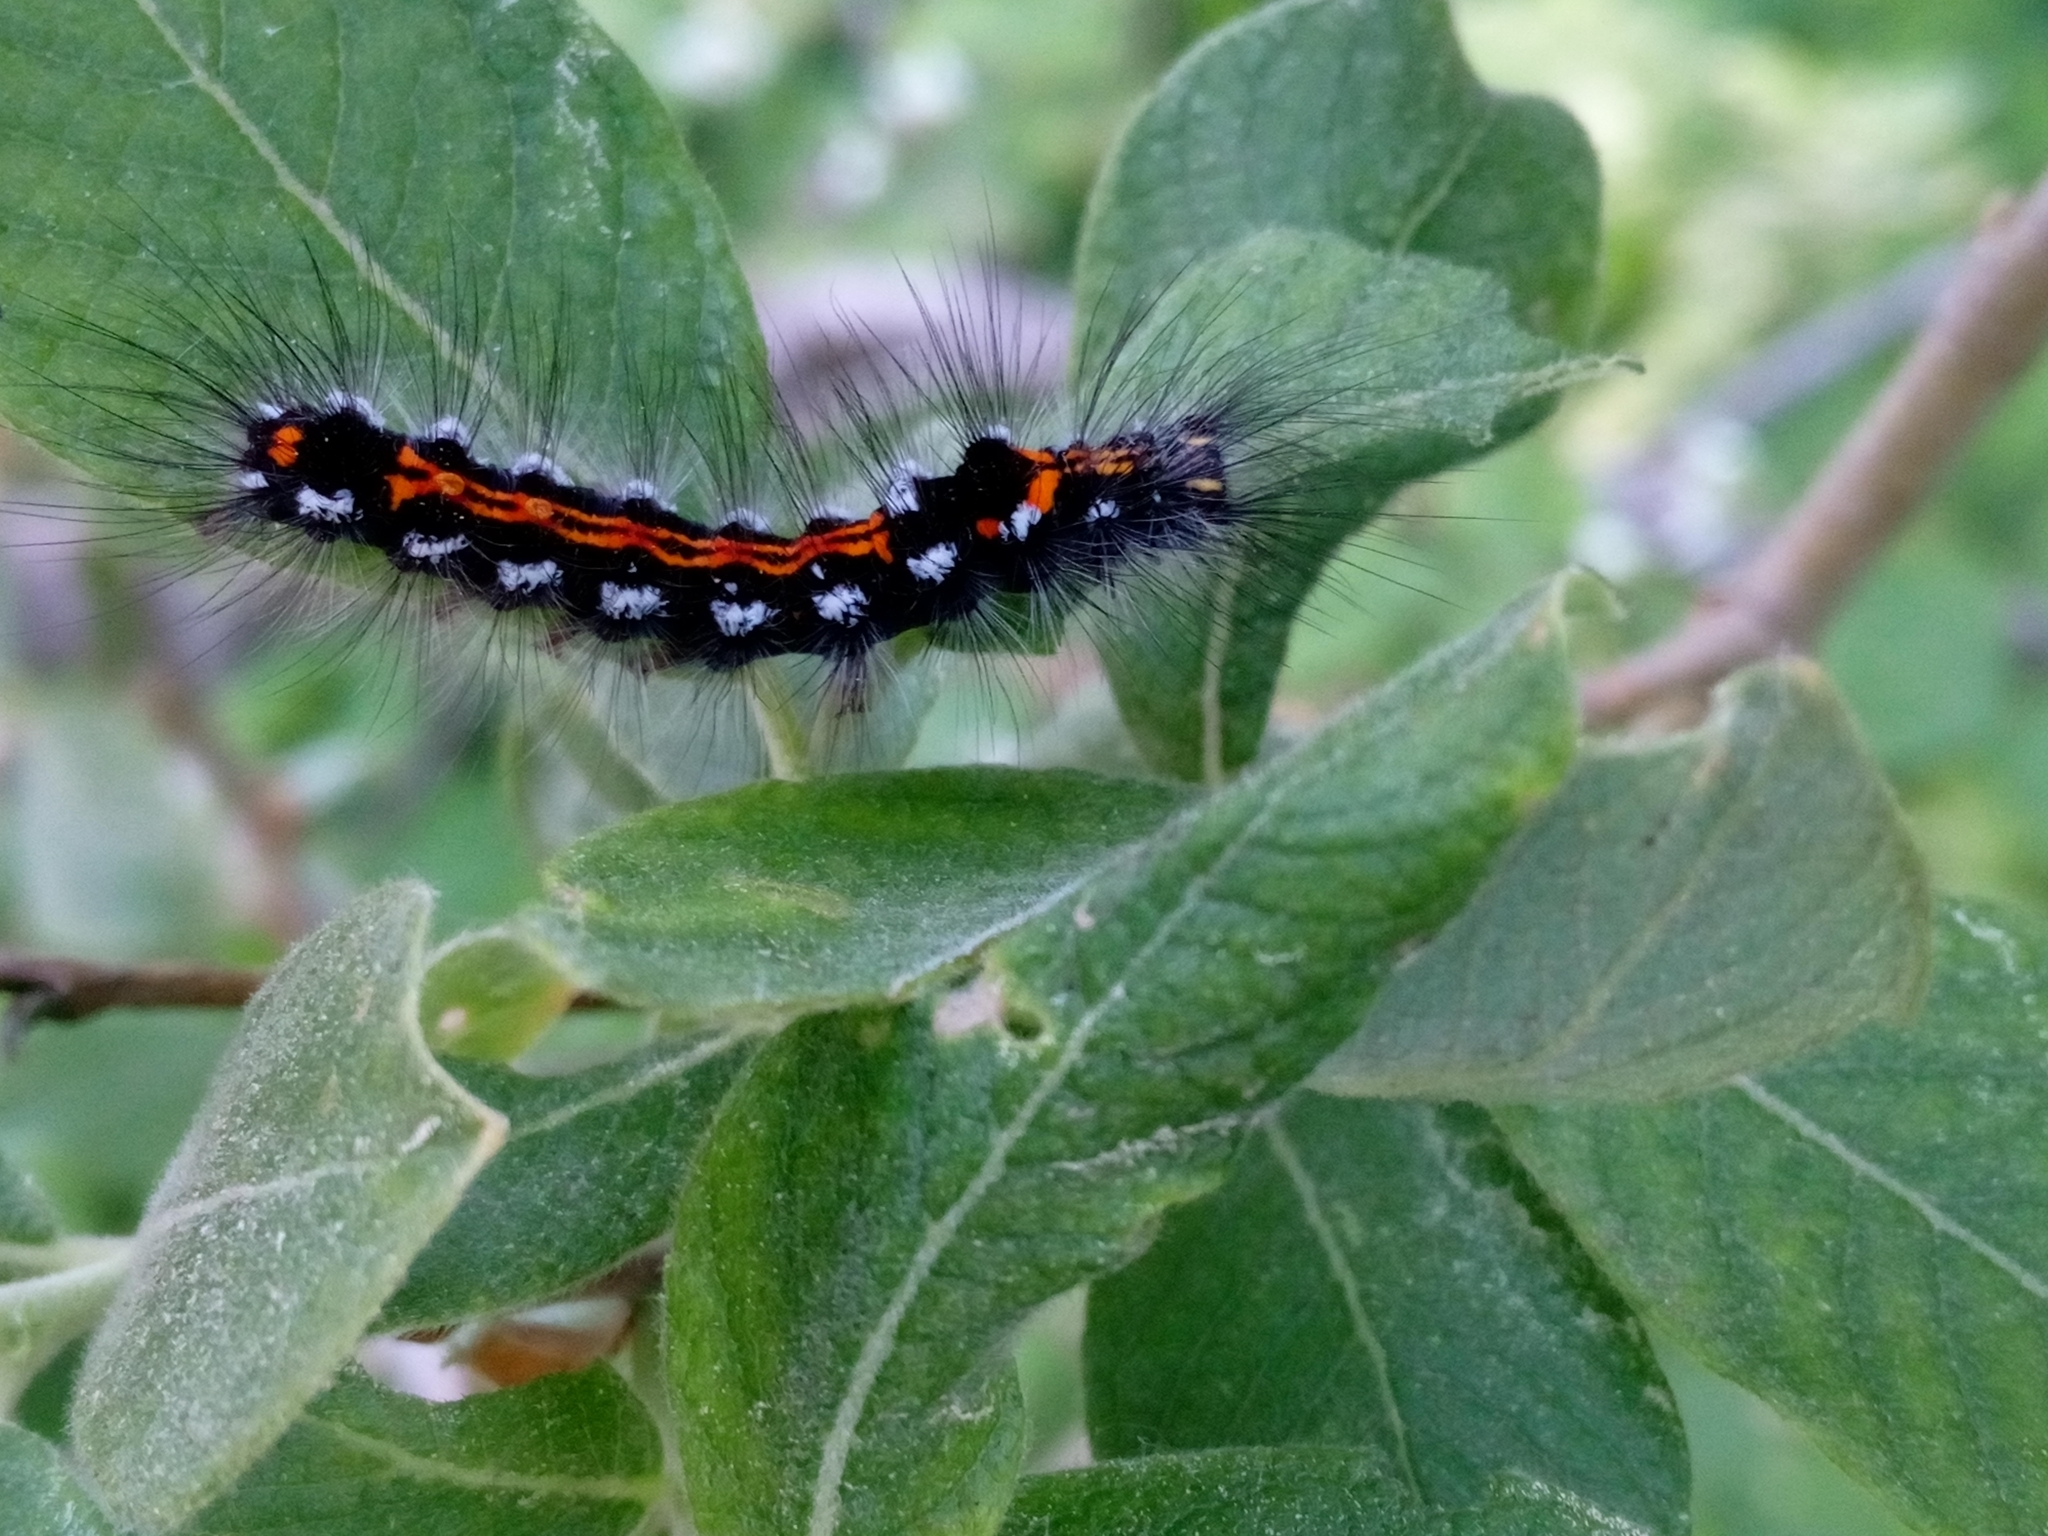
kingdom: Animalia
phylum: Arthropoda
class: Insecta
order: Lepidoptera
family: Erebidae
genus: Sphrageidus
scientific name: Sphrageidus similis
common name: Yellow-tail
